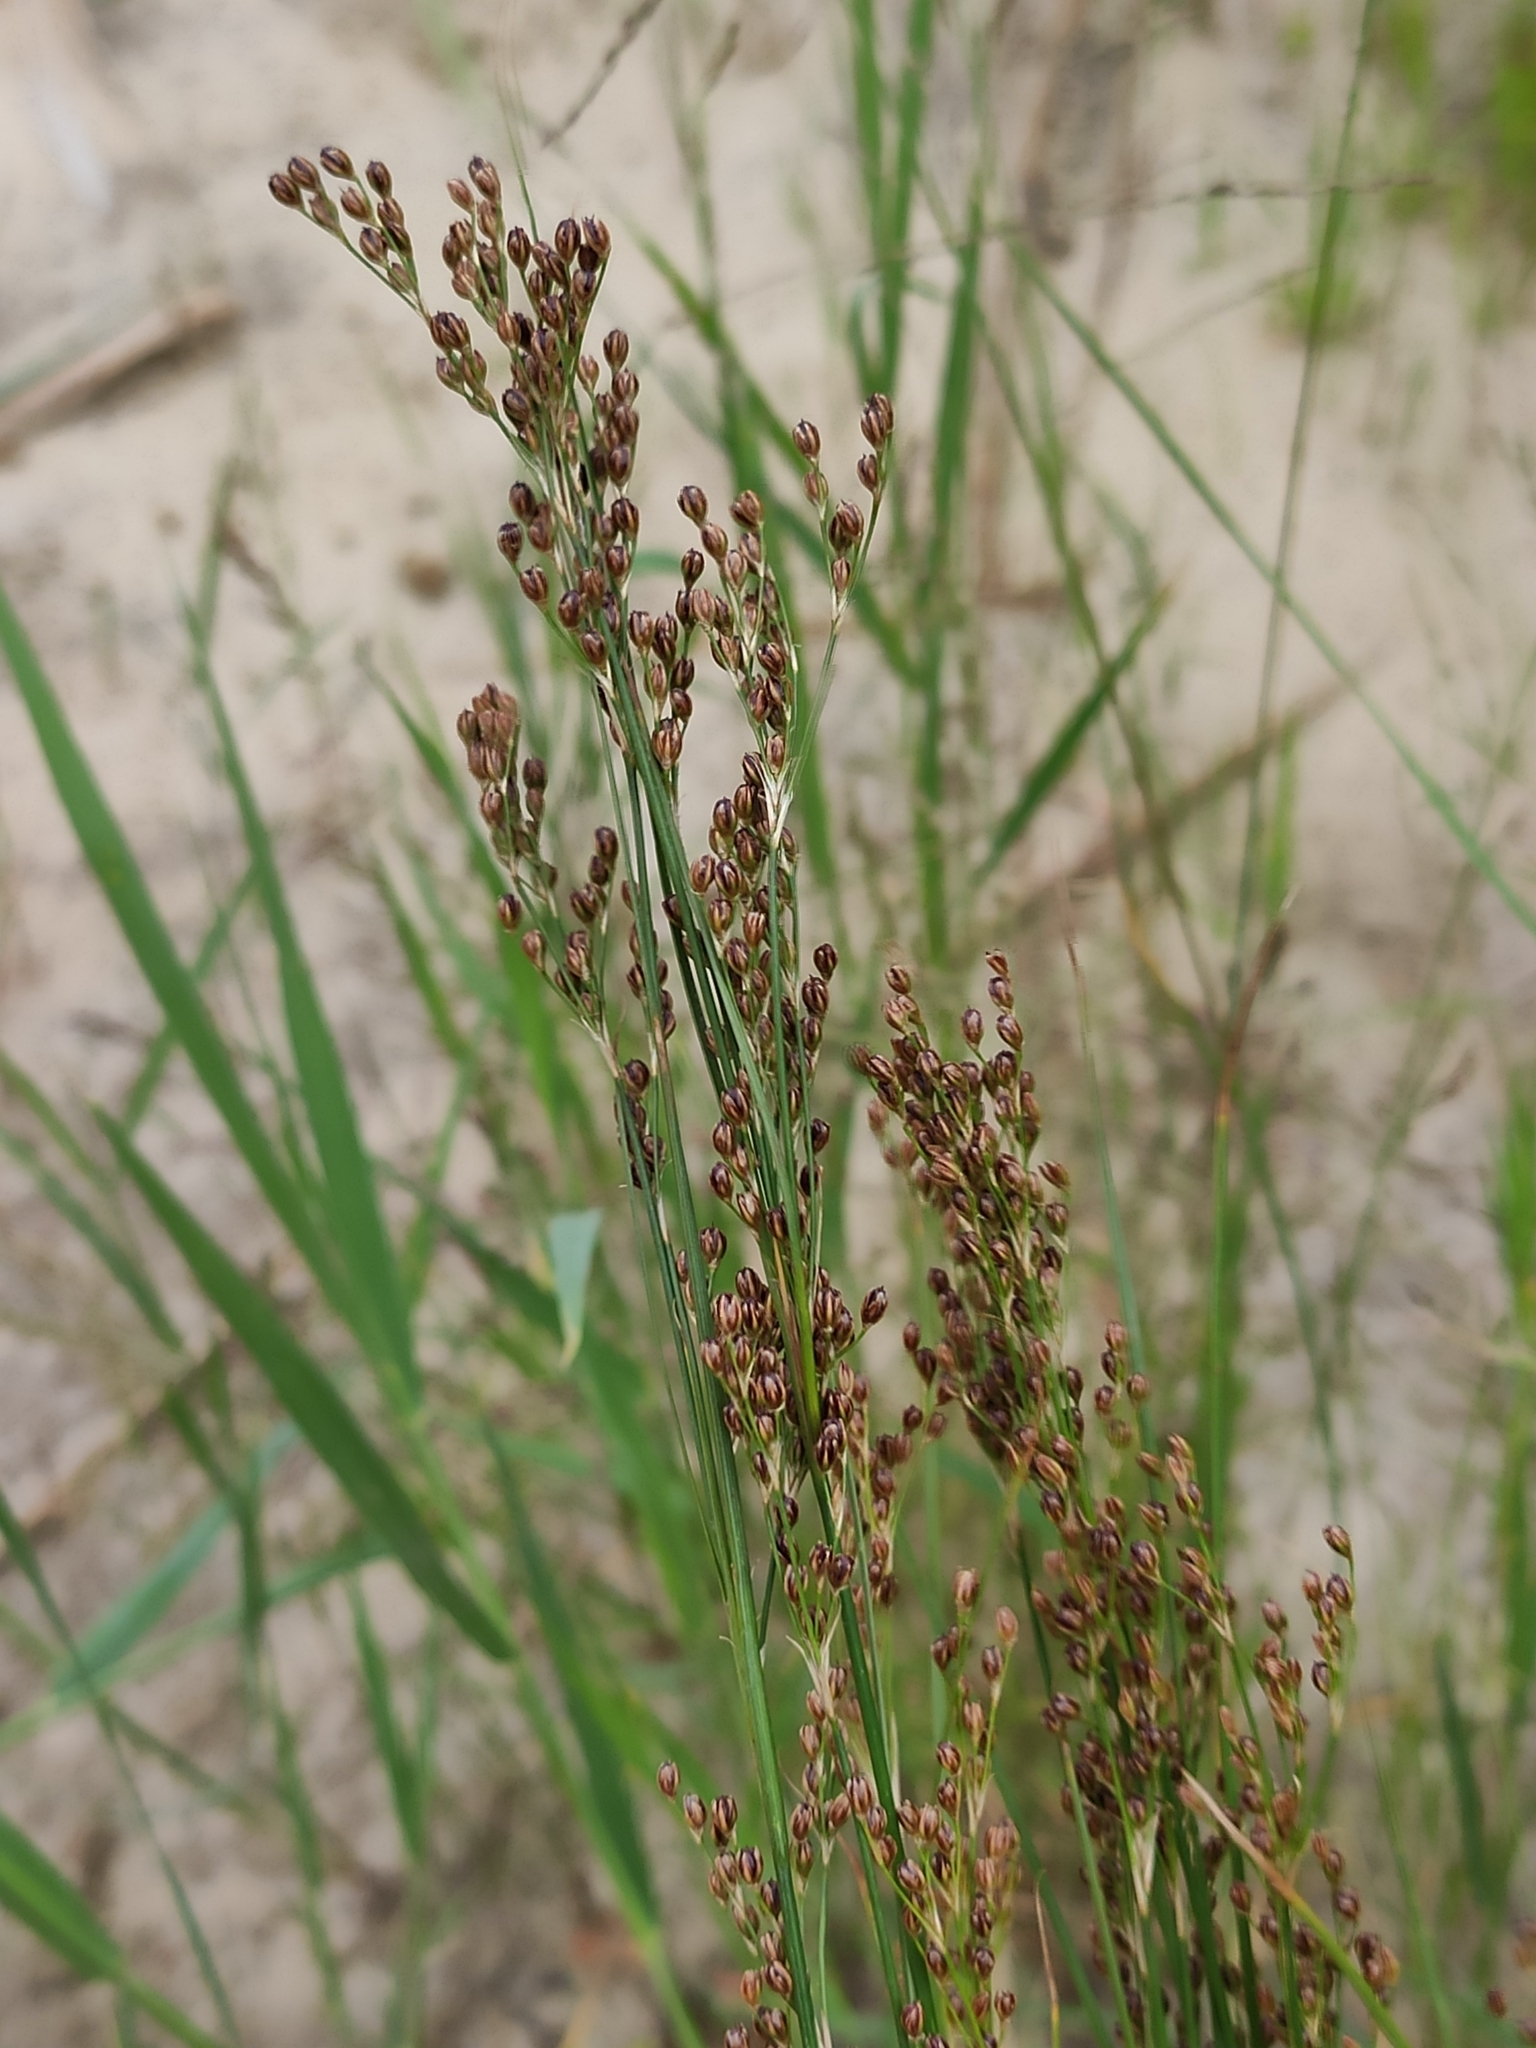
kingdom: Plantae
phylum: Tracheophyta
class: Liliopsida
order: Poales
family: Juncaceae
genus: Juncus
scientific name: Juncus compressus
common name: Round-fruited rush
